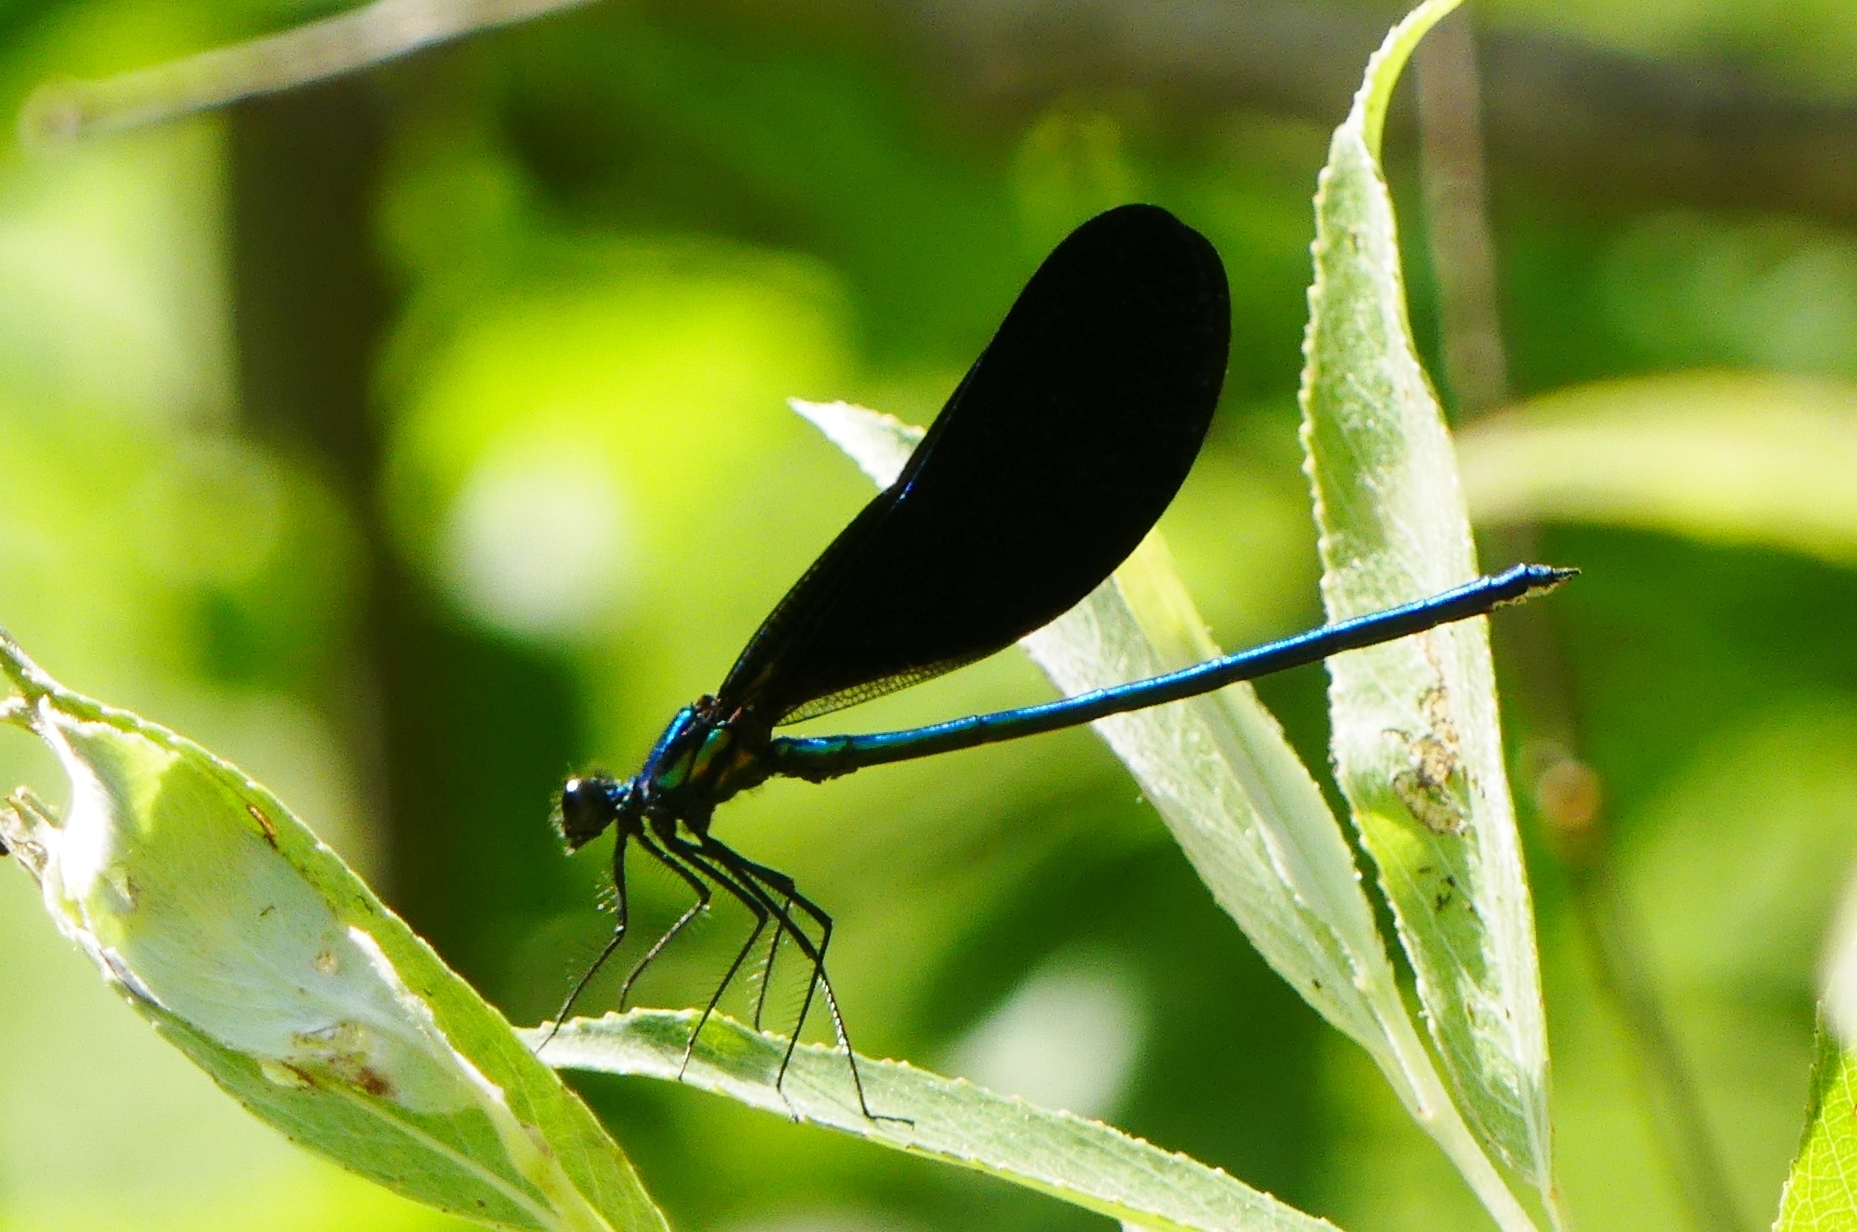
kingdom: Animalia
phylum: Arthropoda
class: Insecta
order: Odonata
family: Calopterygidae
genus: Calopteryx
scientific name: Calopteryx maculata
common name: Ebony jewelwing
